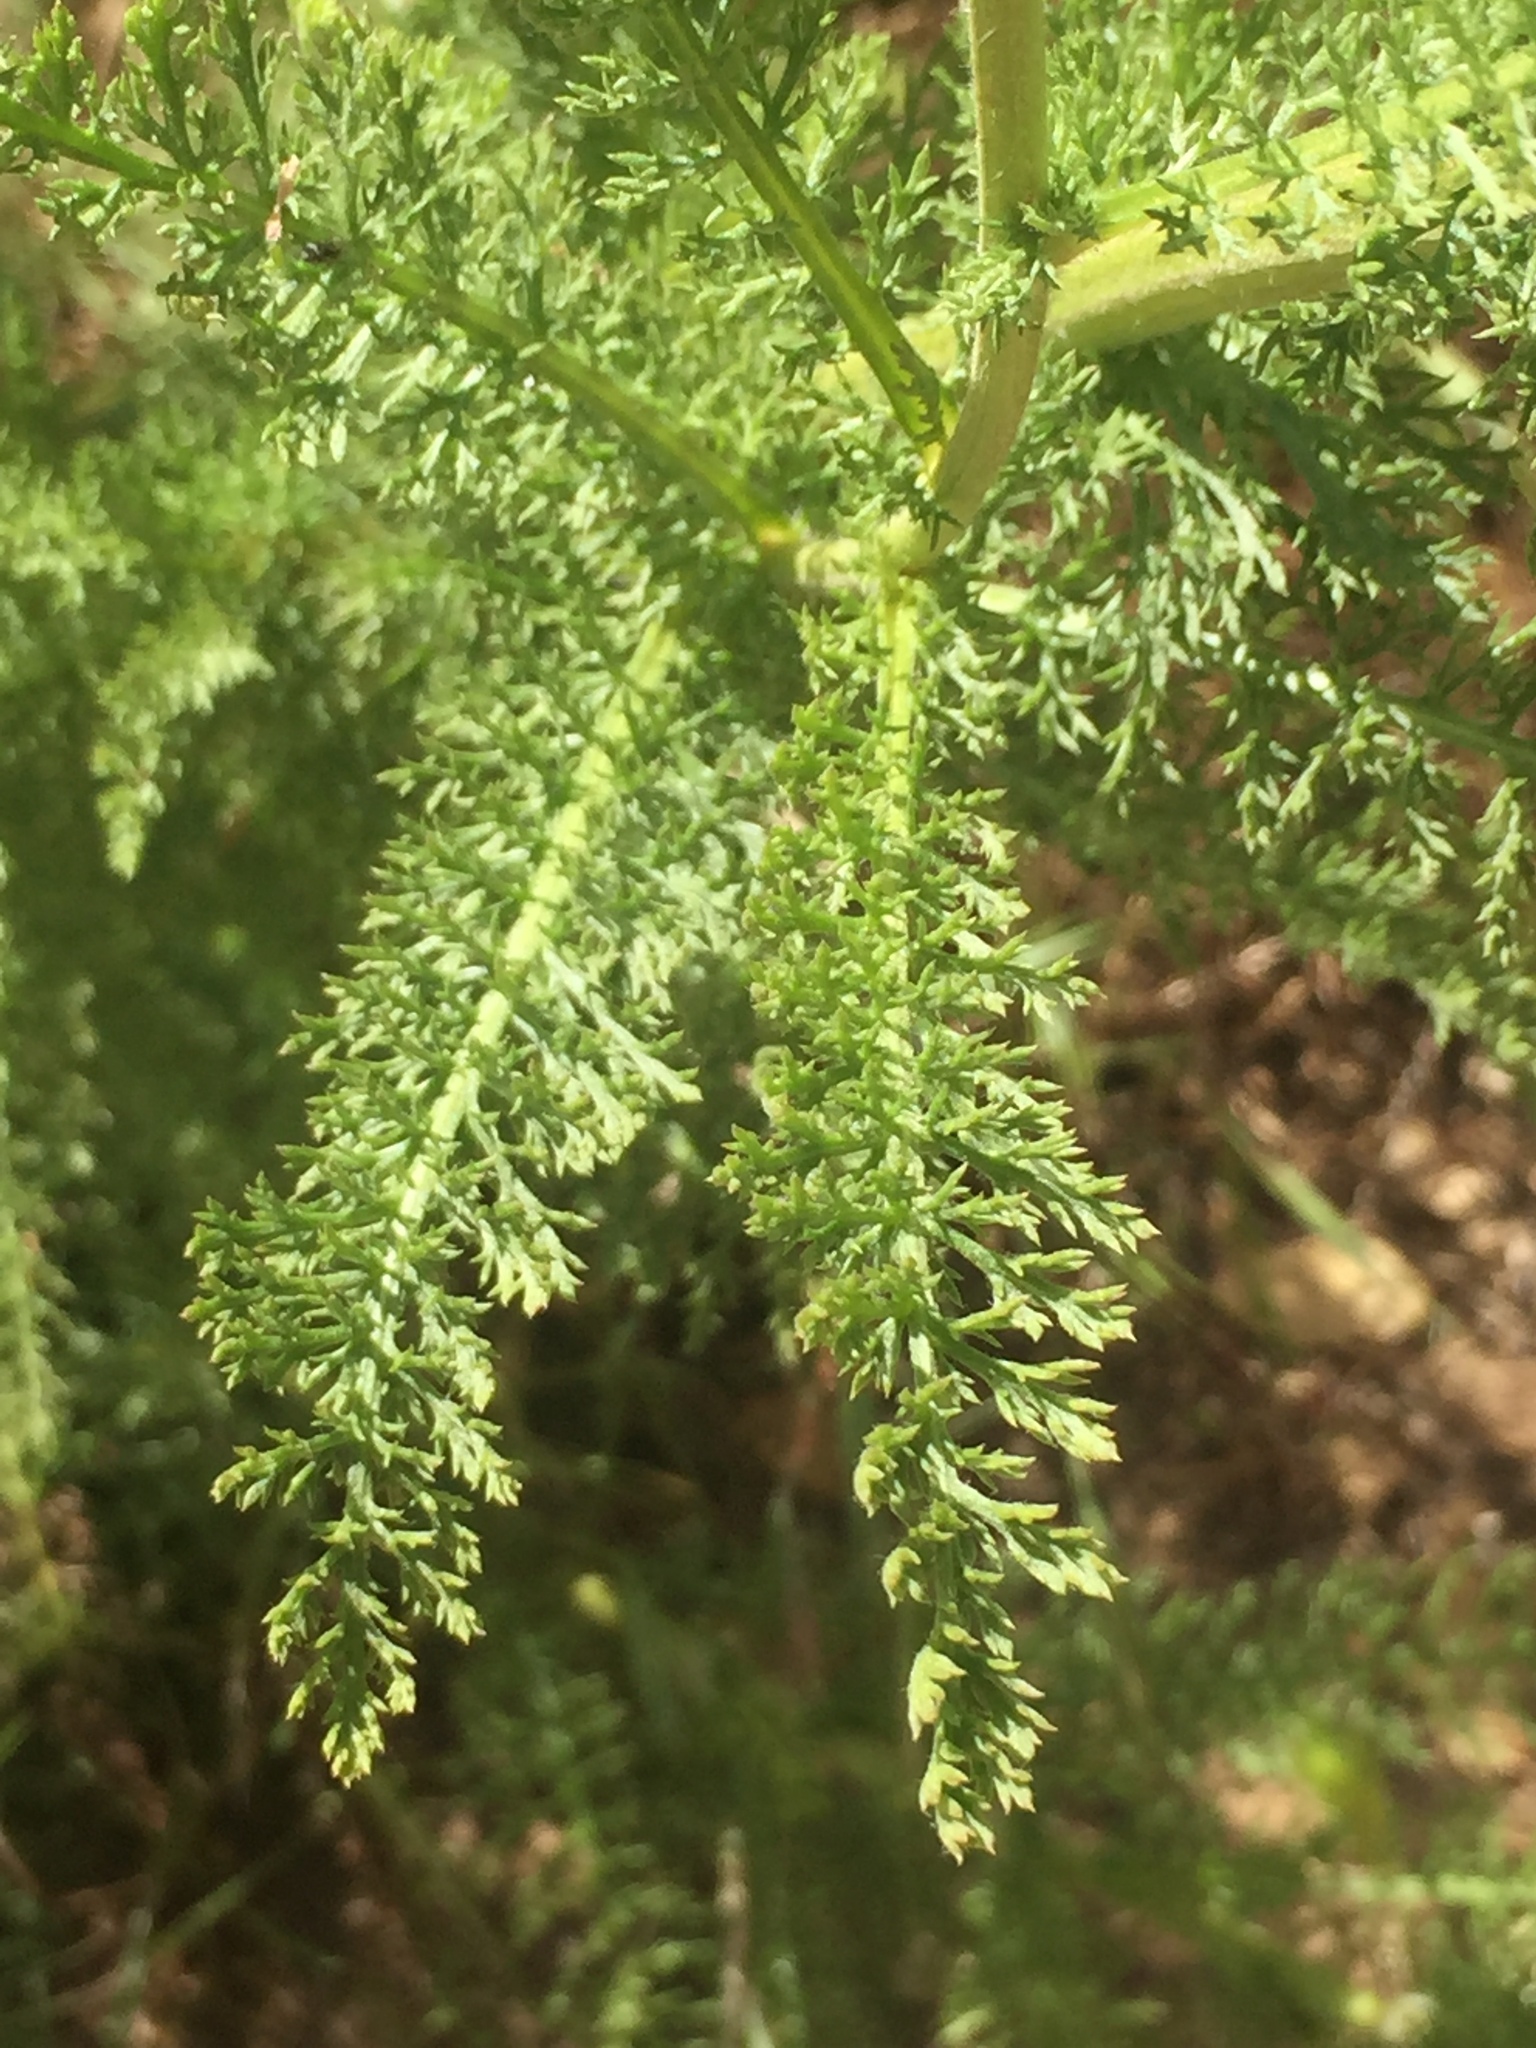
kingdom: Plantae
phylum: Tracheophyta
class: Magnoliopsida
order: Asterales
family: Asteraceae
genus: Achillea
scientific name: Achillea millefolium
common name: Yarrow
